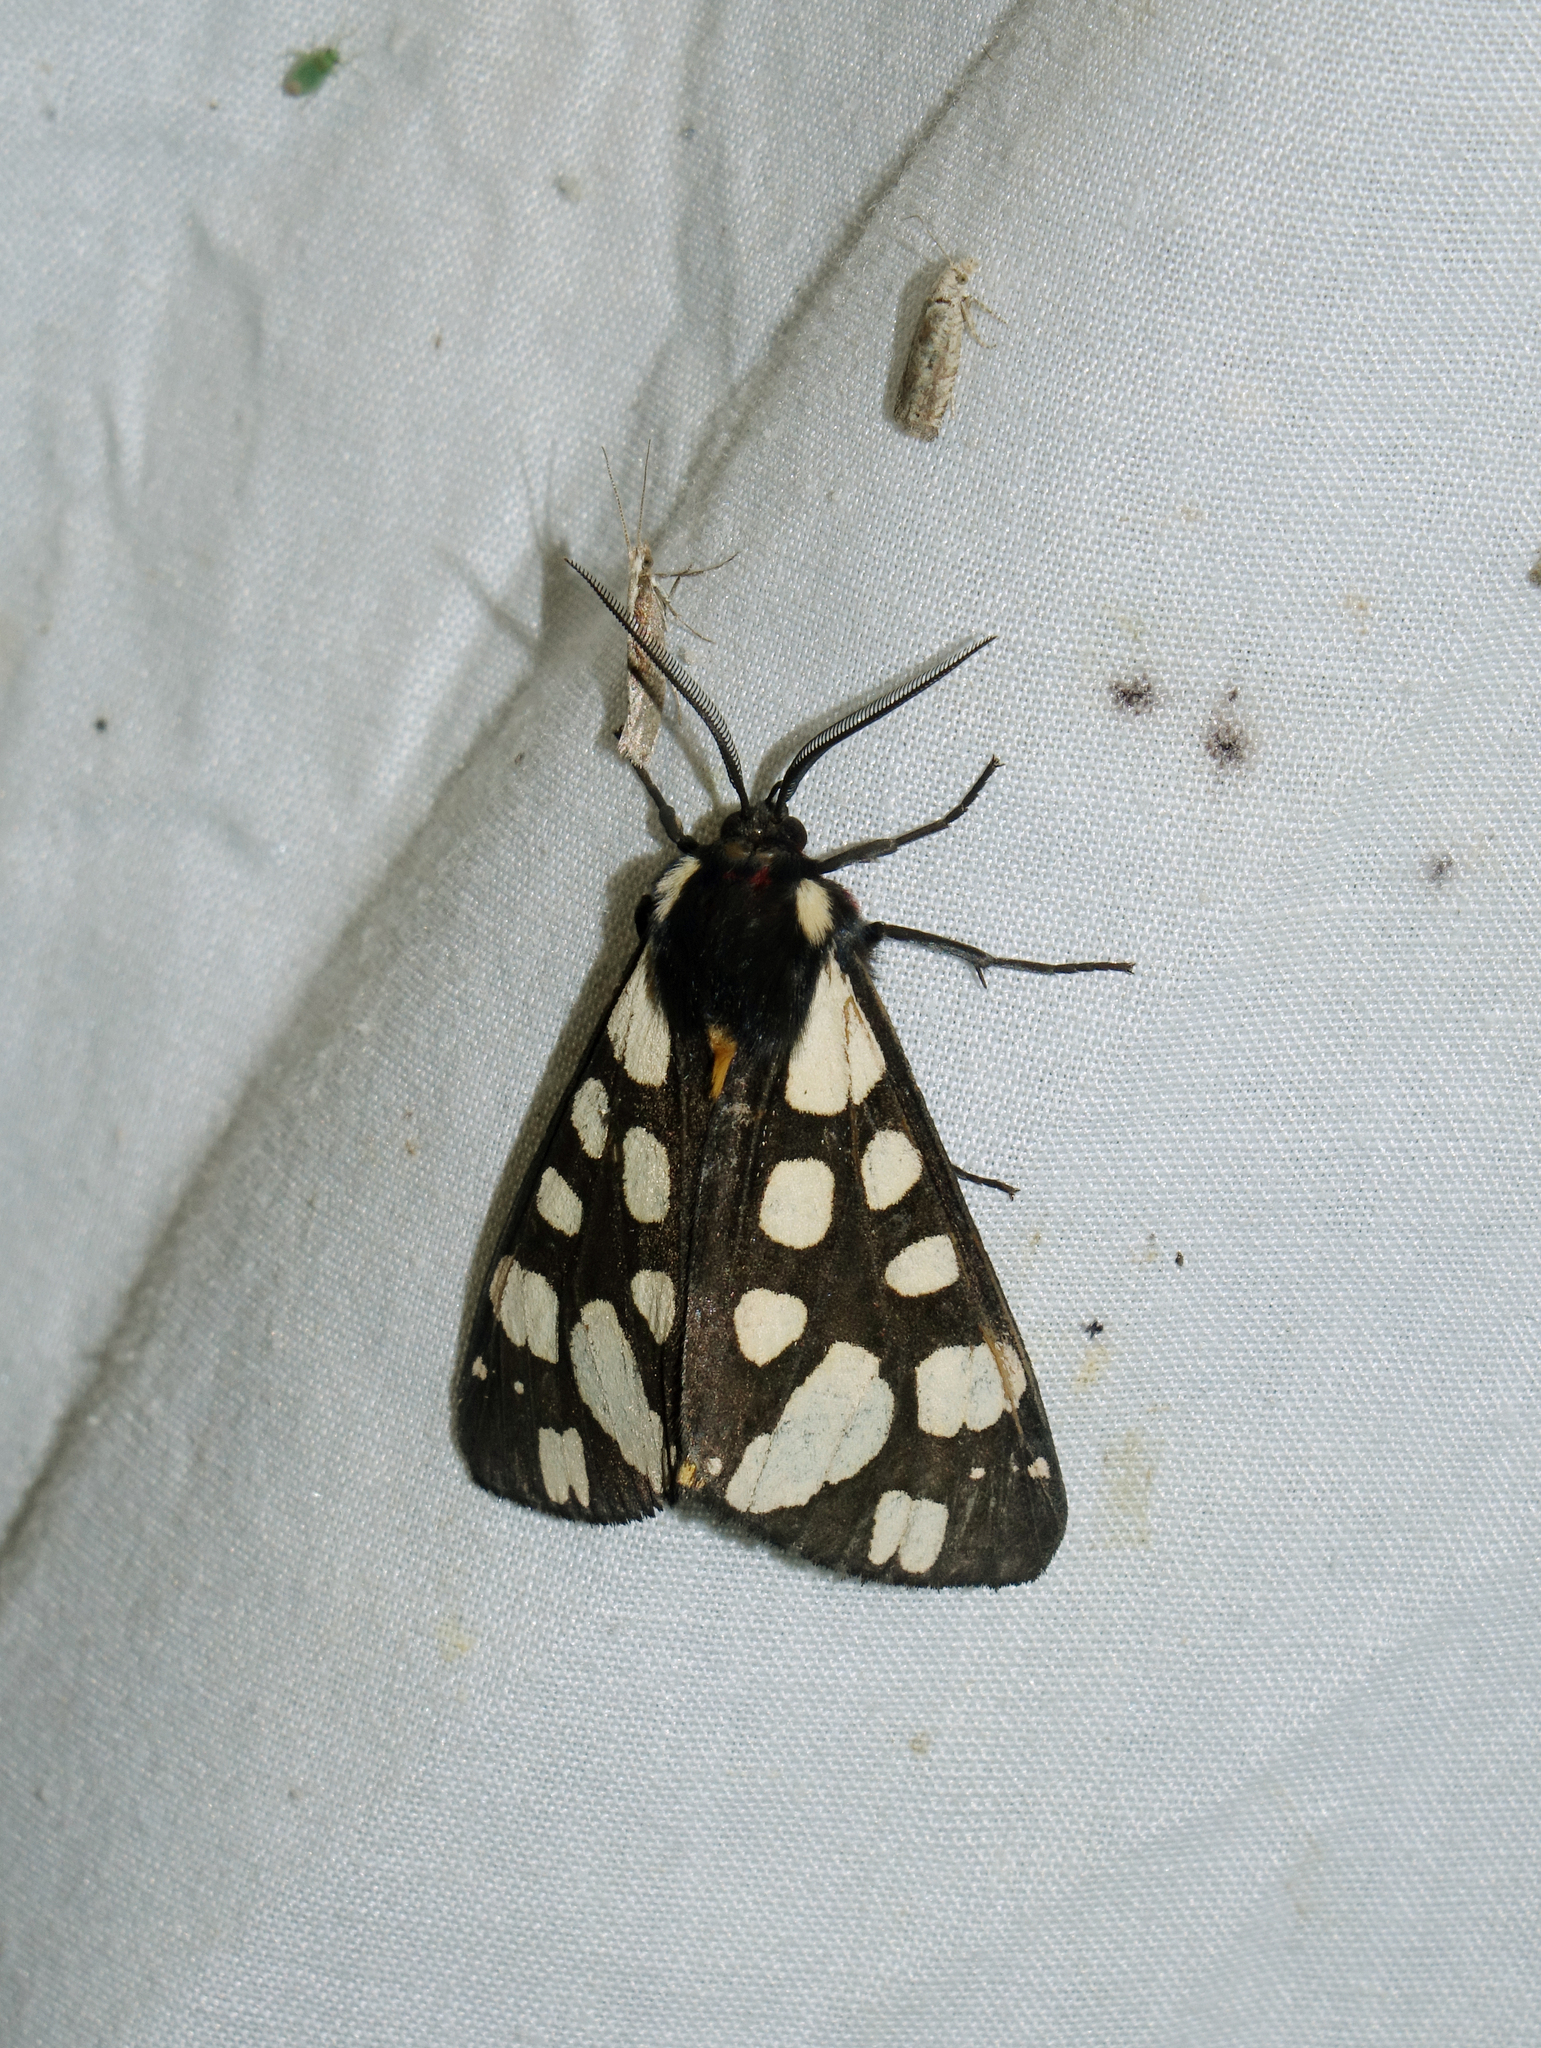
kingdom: Animalia
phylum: Arthropoda
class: Insecta
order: Lepidoptera
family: Erebidae
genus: Epicallia
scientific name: Epicallia villica
